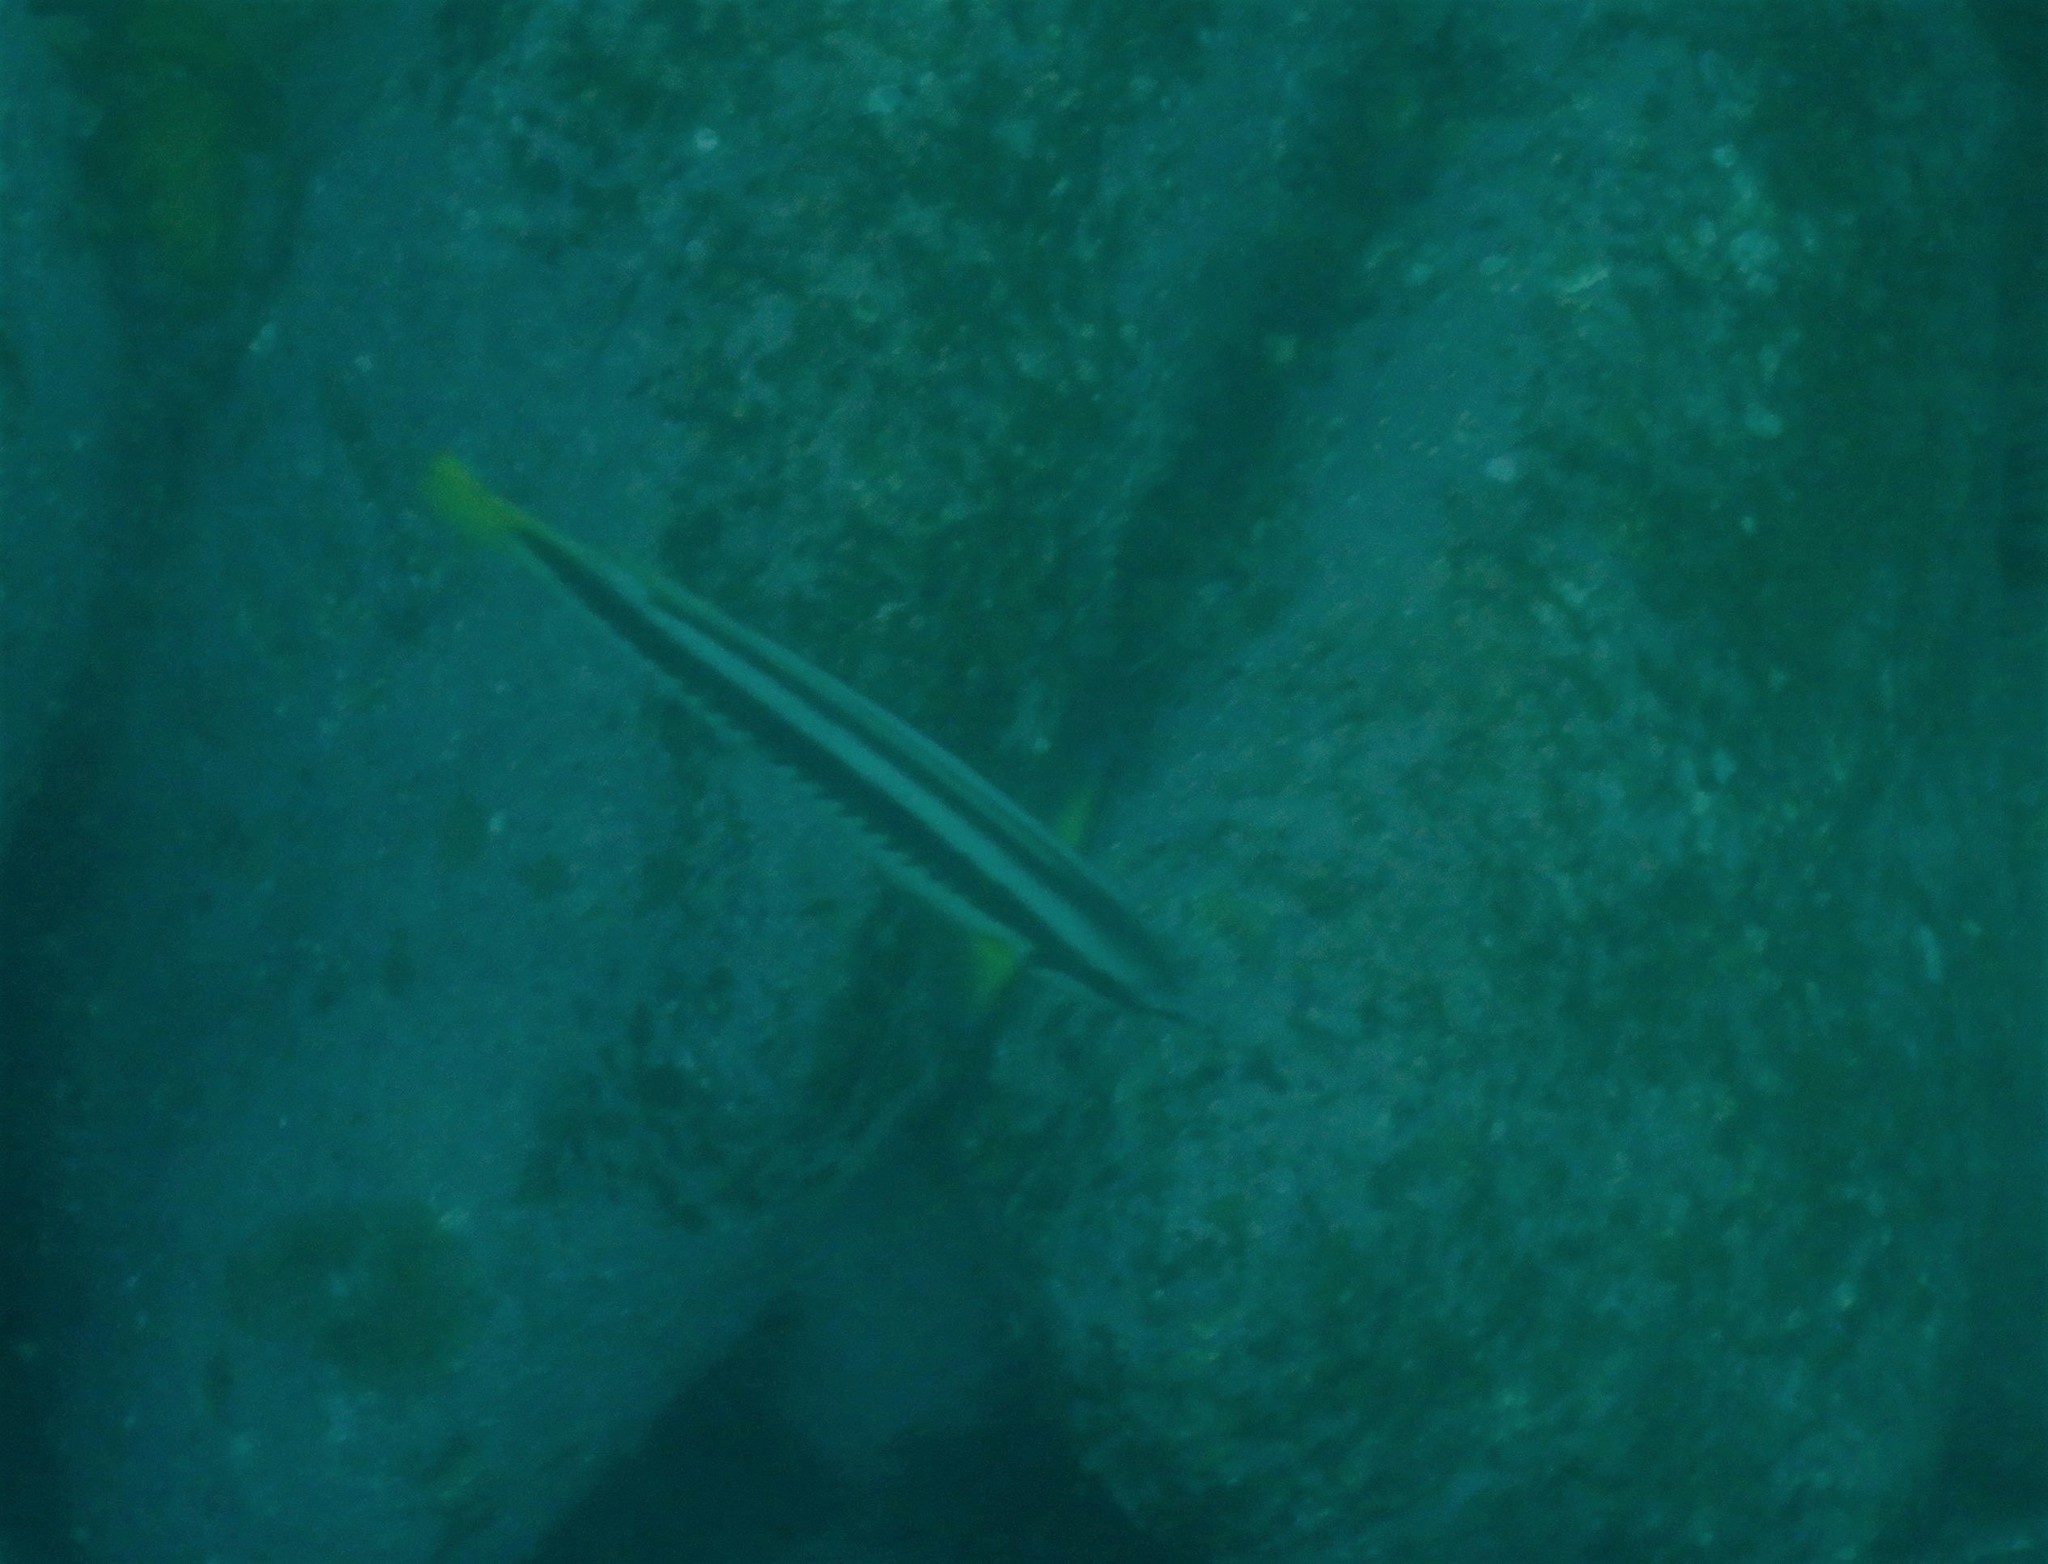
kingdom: Animalia
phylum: Chordata
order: Perciformes
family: Labridae
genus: Coris
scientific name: Coris picta
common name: Combfish
